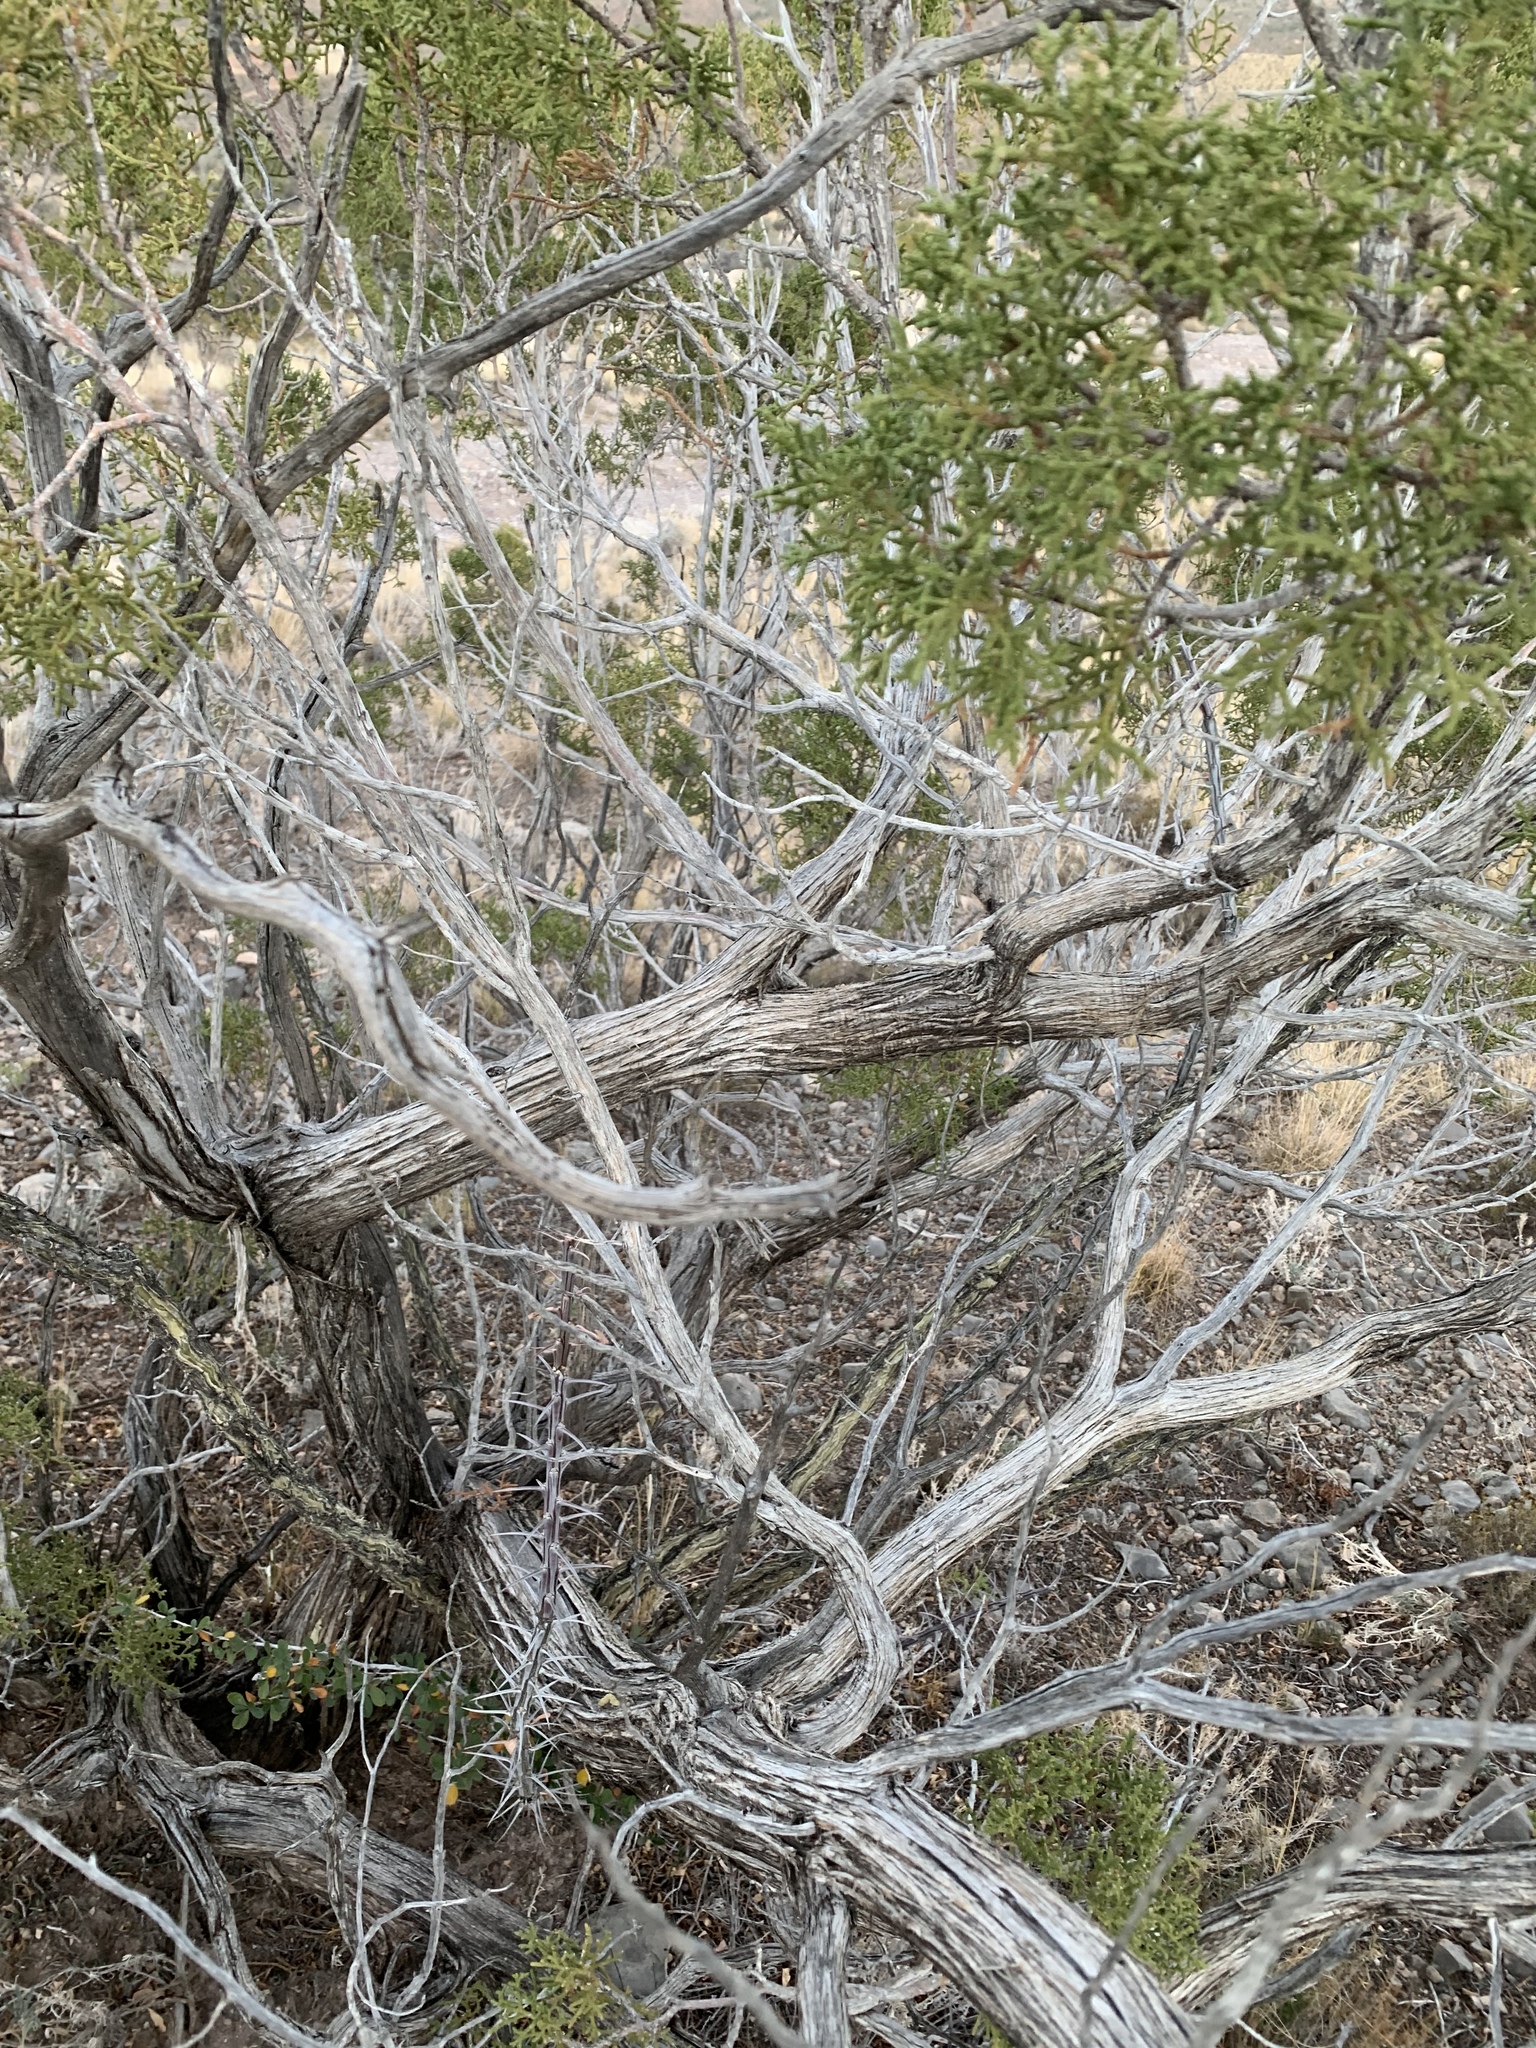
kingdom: Plantae
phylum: Tracheophyta
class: Pinopsida
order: Pinales
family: Cupressaceae
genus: Juniperus
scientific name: Juniperus monosperma
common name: One-seed juniper
